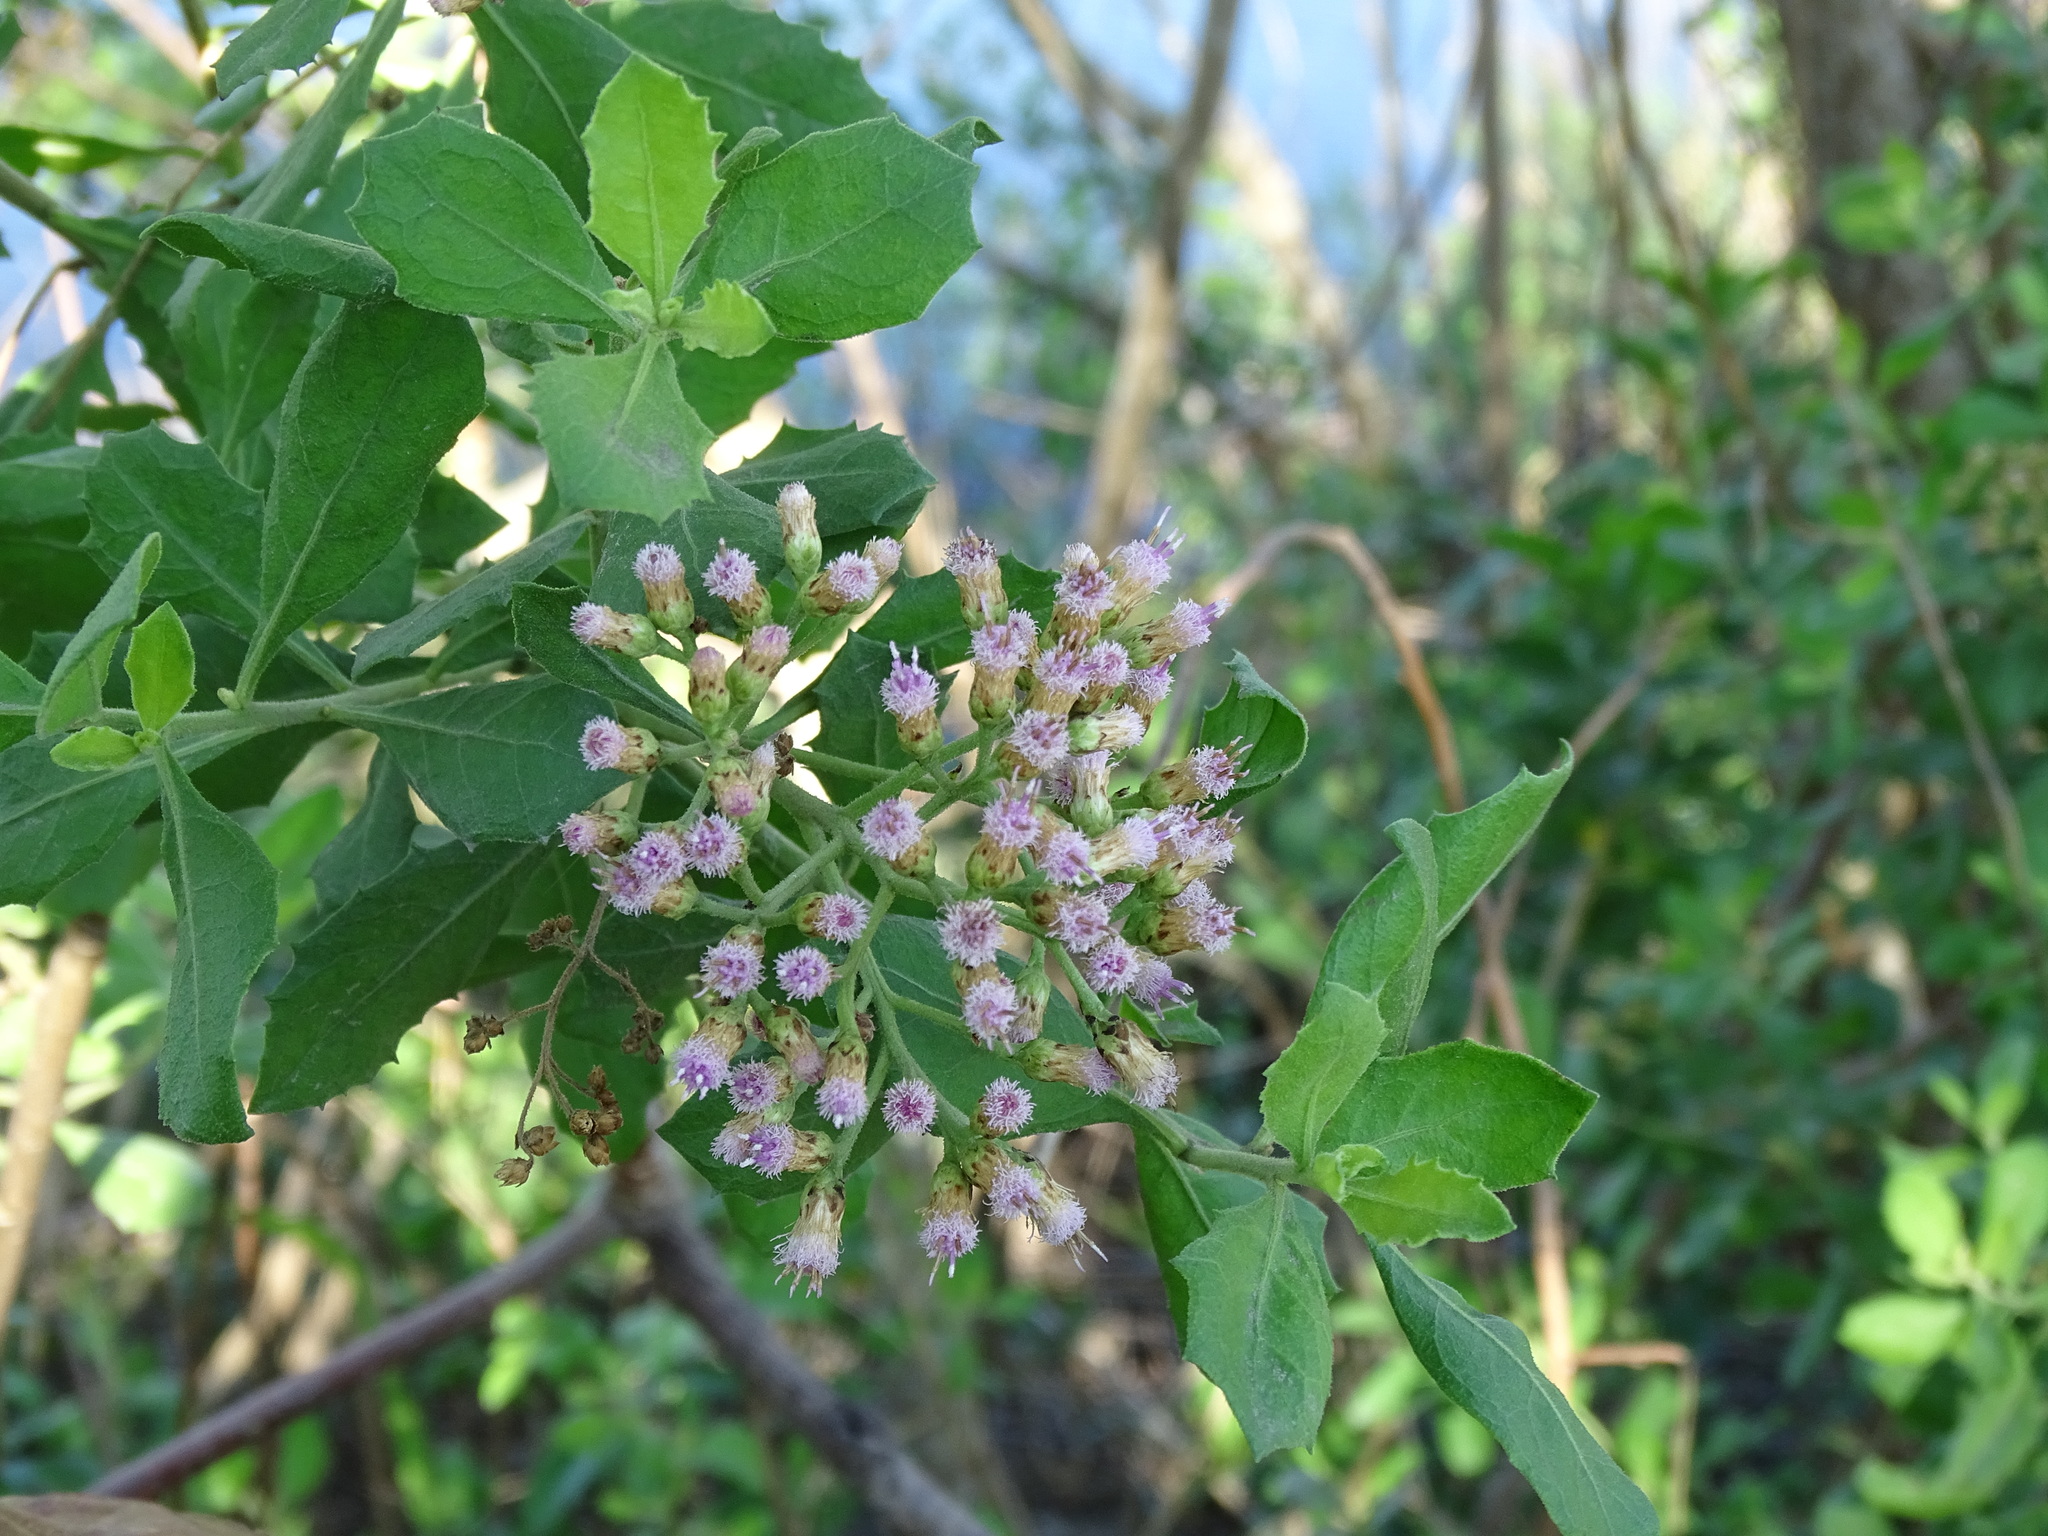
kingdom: Plantae
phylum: Tracheophyta
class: Magnoliopsida
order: Asterales
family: Asteraceae
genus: Pluchea
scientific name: Pluchea indica
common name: Indian fleabane
